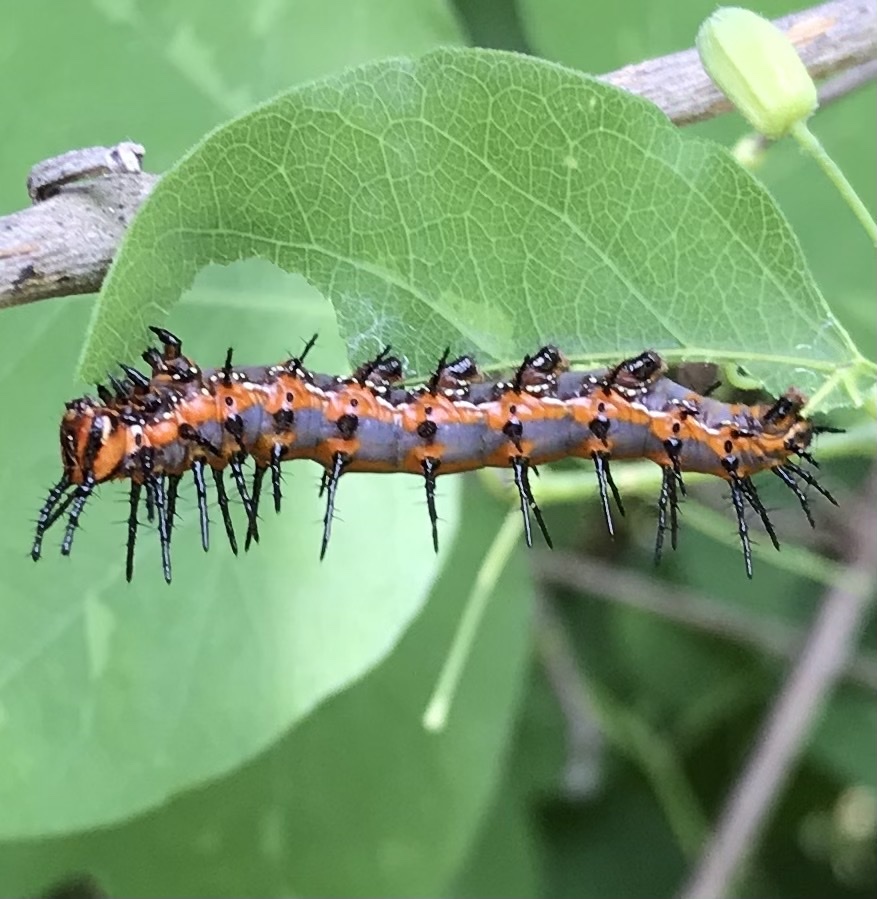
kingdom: Animalia
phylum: Arthropoda
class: Insecta
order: Lepidoptera
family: Nymphalidae
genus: Dione
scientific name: Dione vanillae
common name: Gulf fritillary
